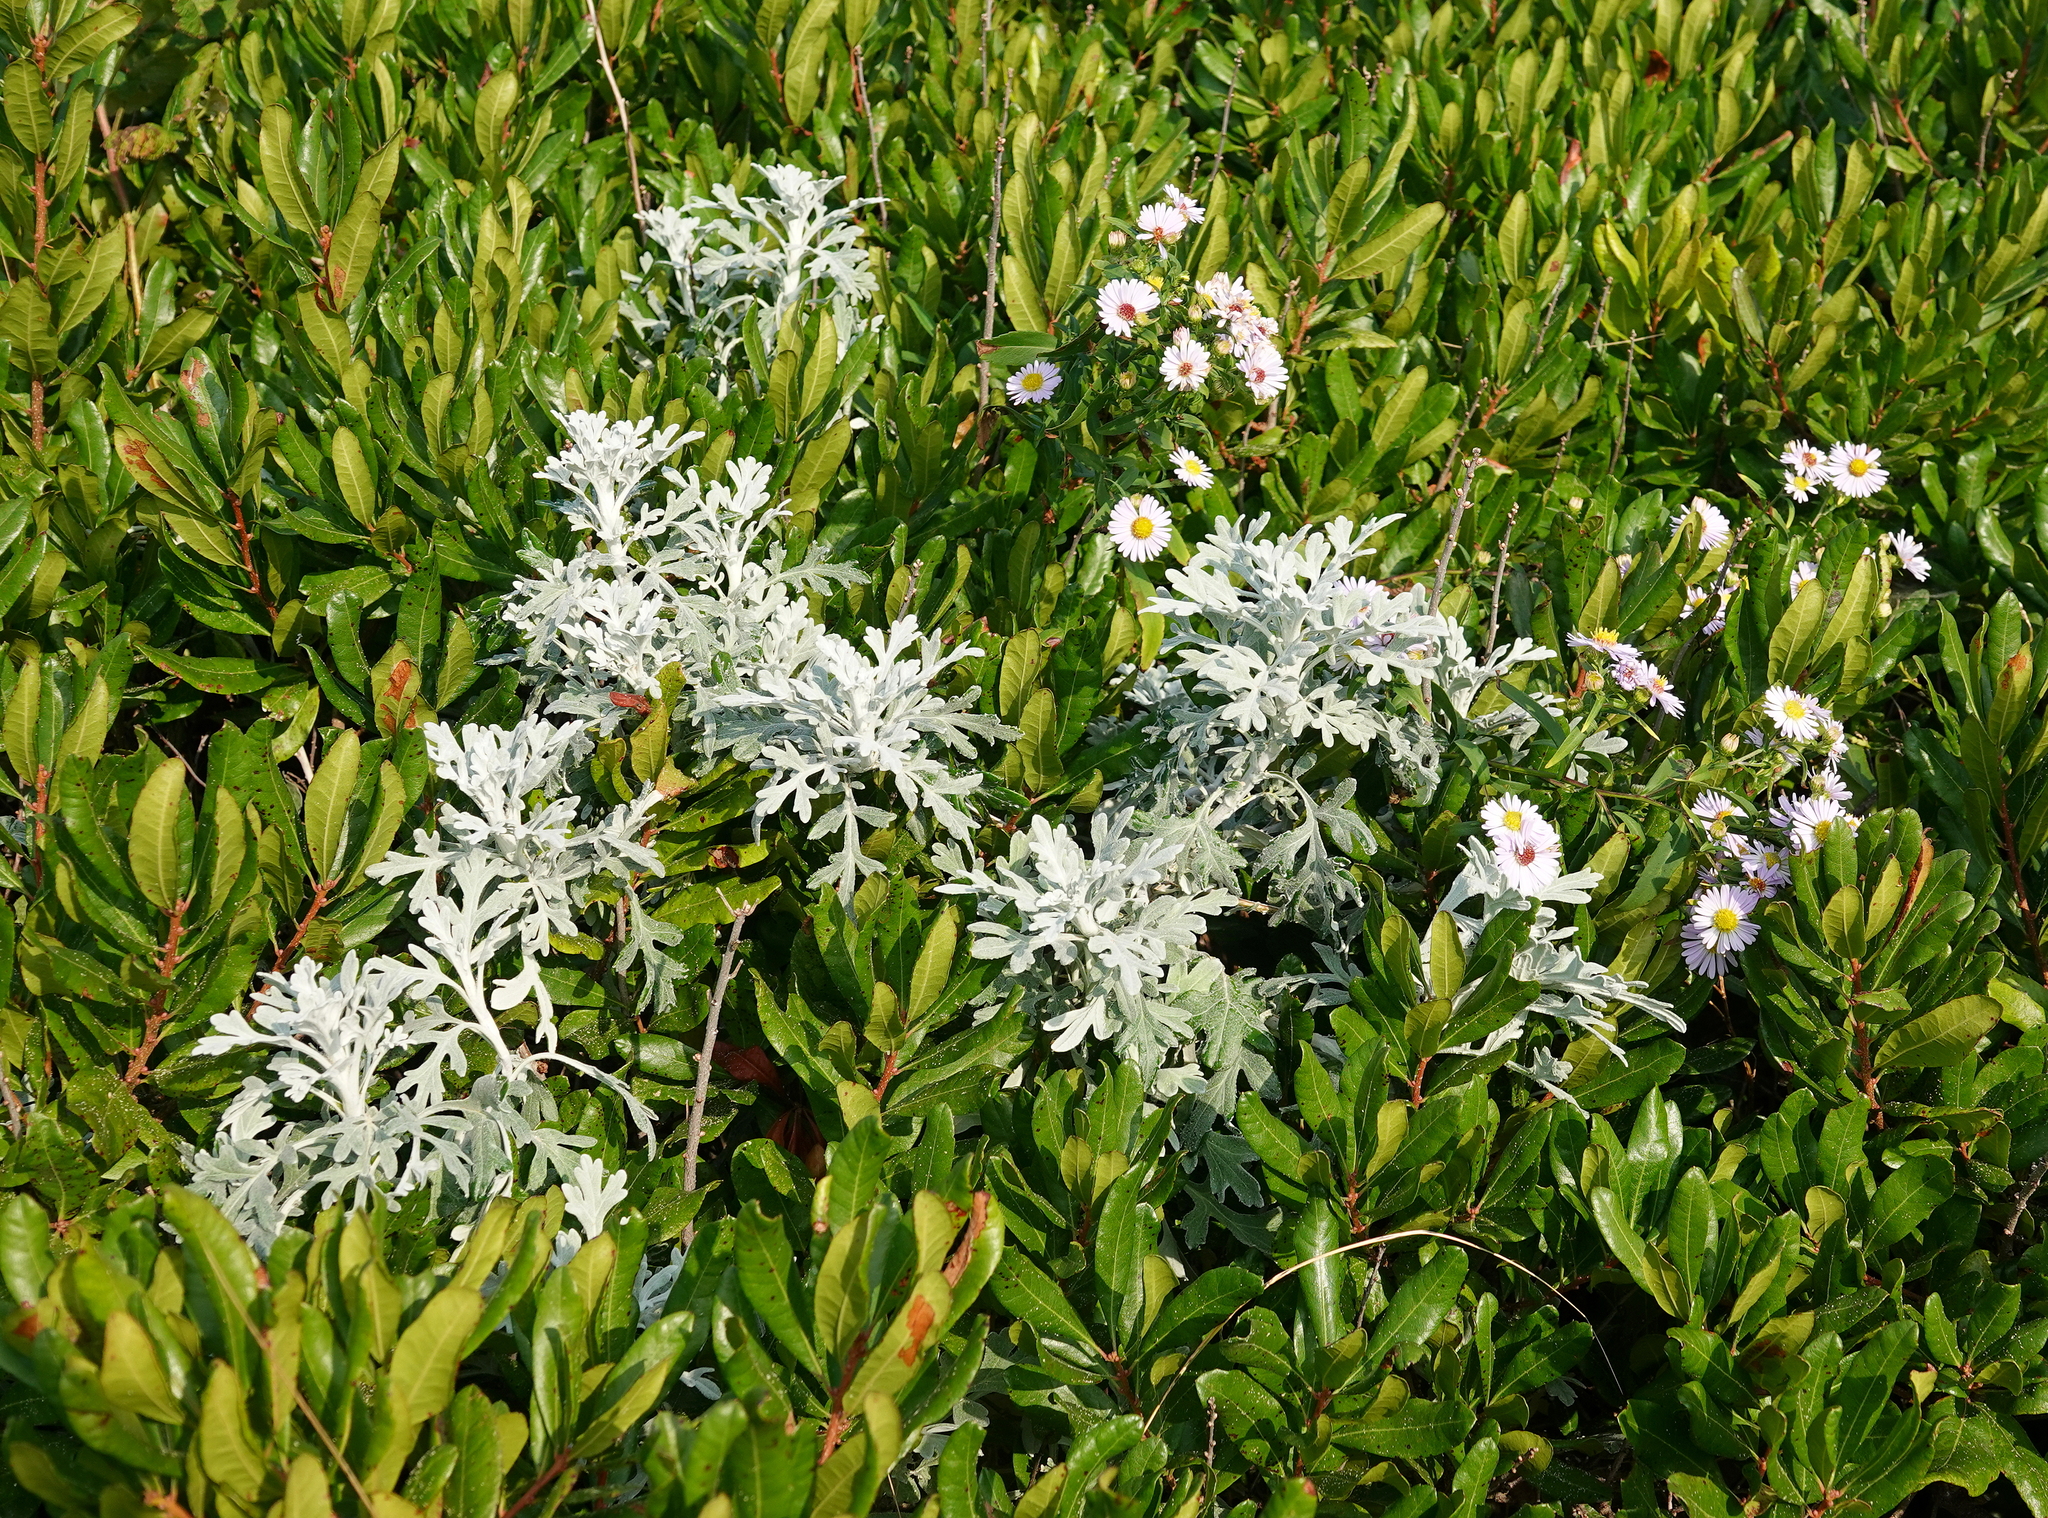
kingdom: Plantae
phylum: Tracheophyta
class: Magnoliopsida
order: Asterales
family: Asteraceae
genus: Artemisia
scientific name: Artemisia stelleriana
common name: Beach wormwood
